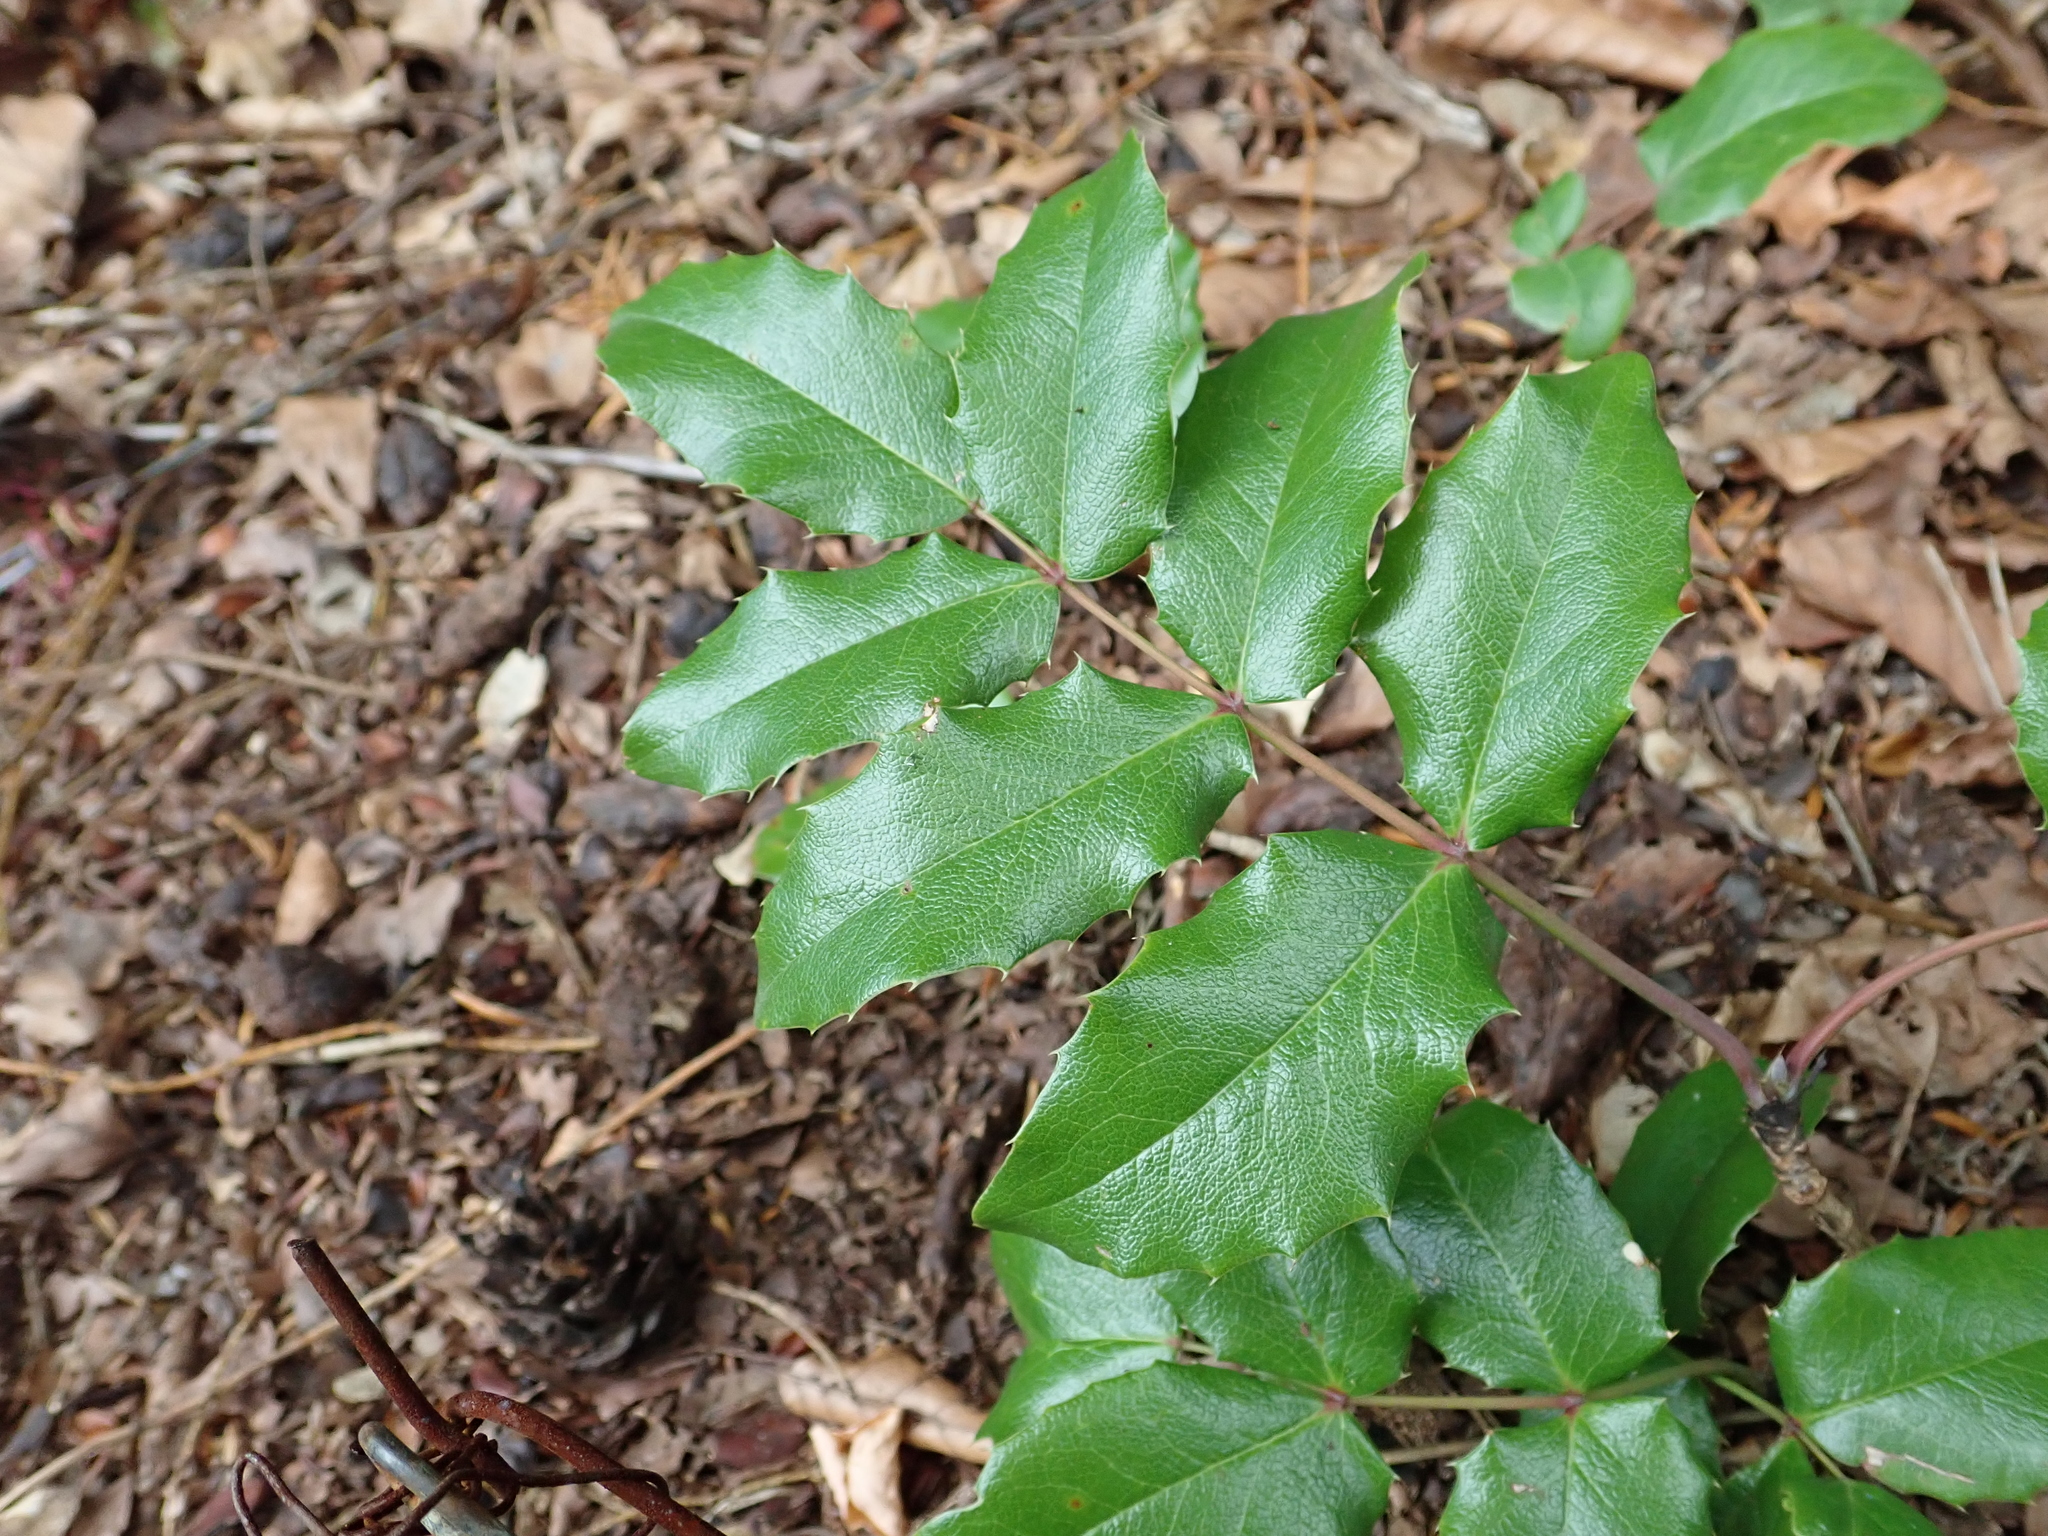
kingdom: Plantae
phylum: Tracheophyta
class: Magnoliopsida
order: Ranunculales
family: Berberidaceae
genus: Mahonia
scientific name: Mahonia aquifolium
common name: Oregon-grape
